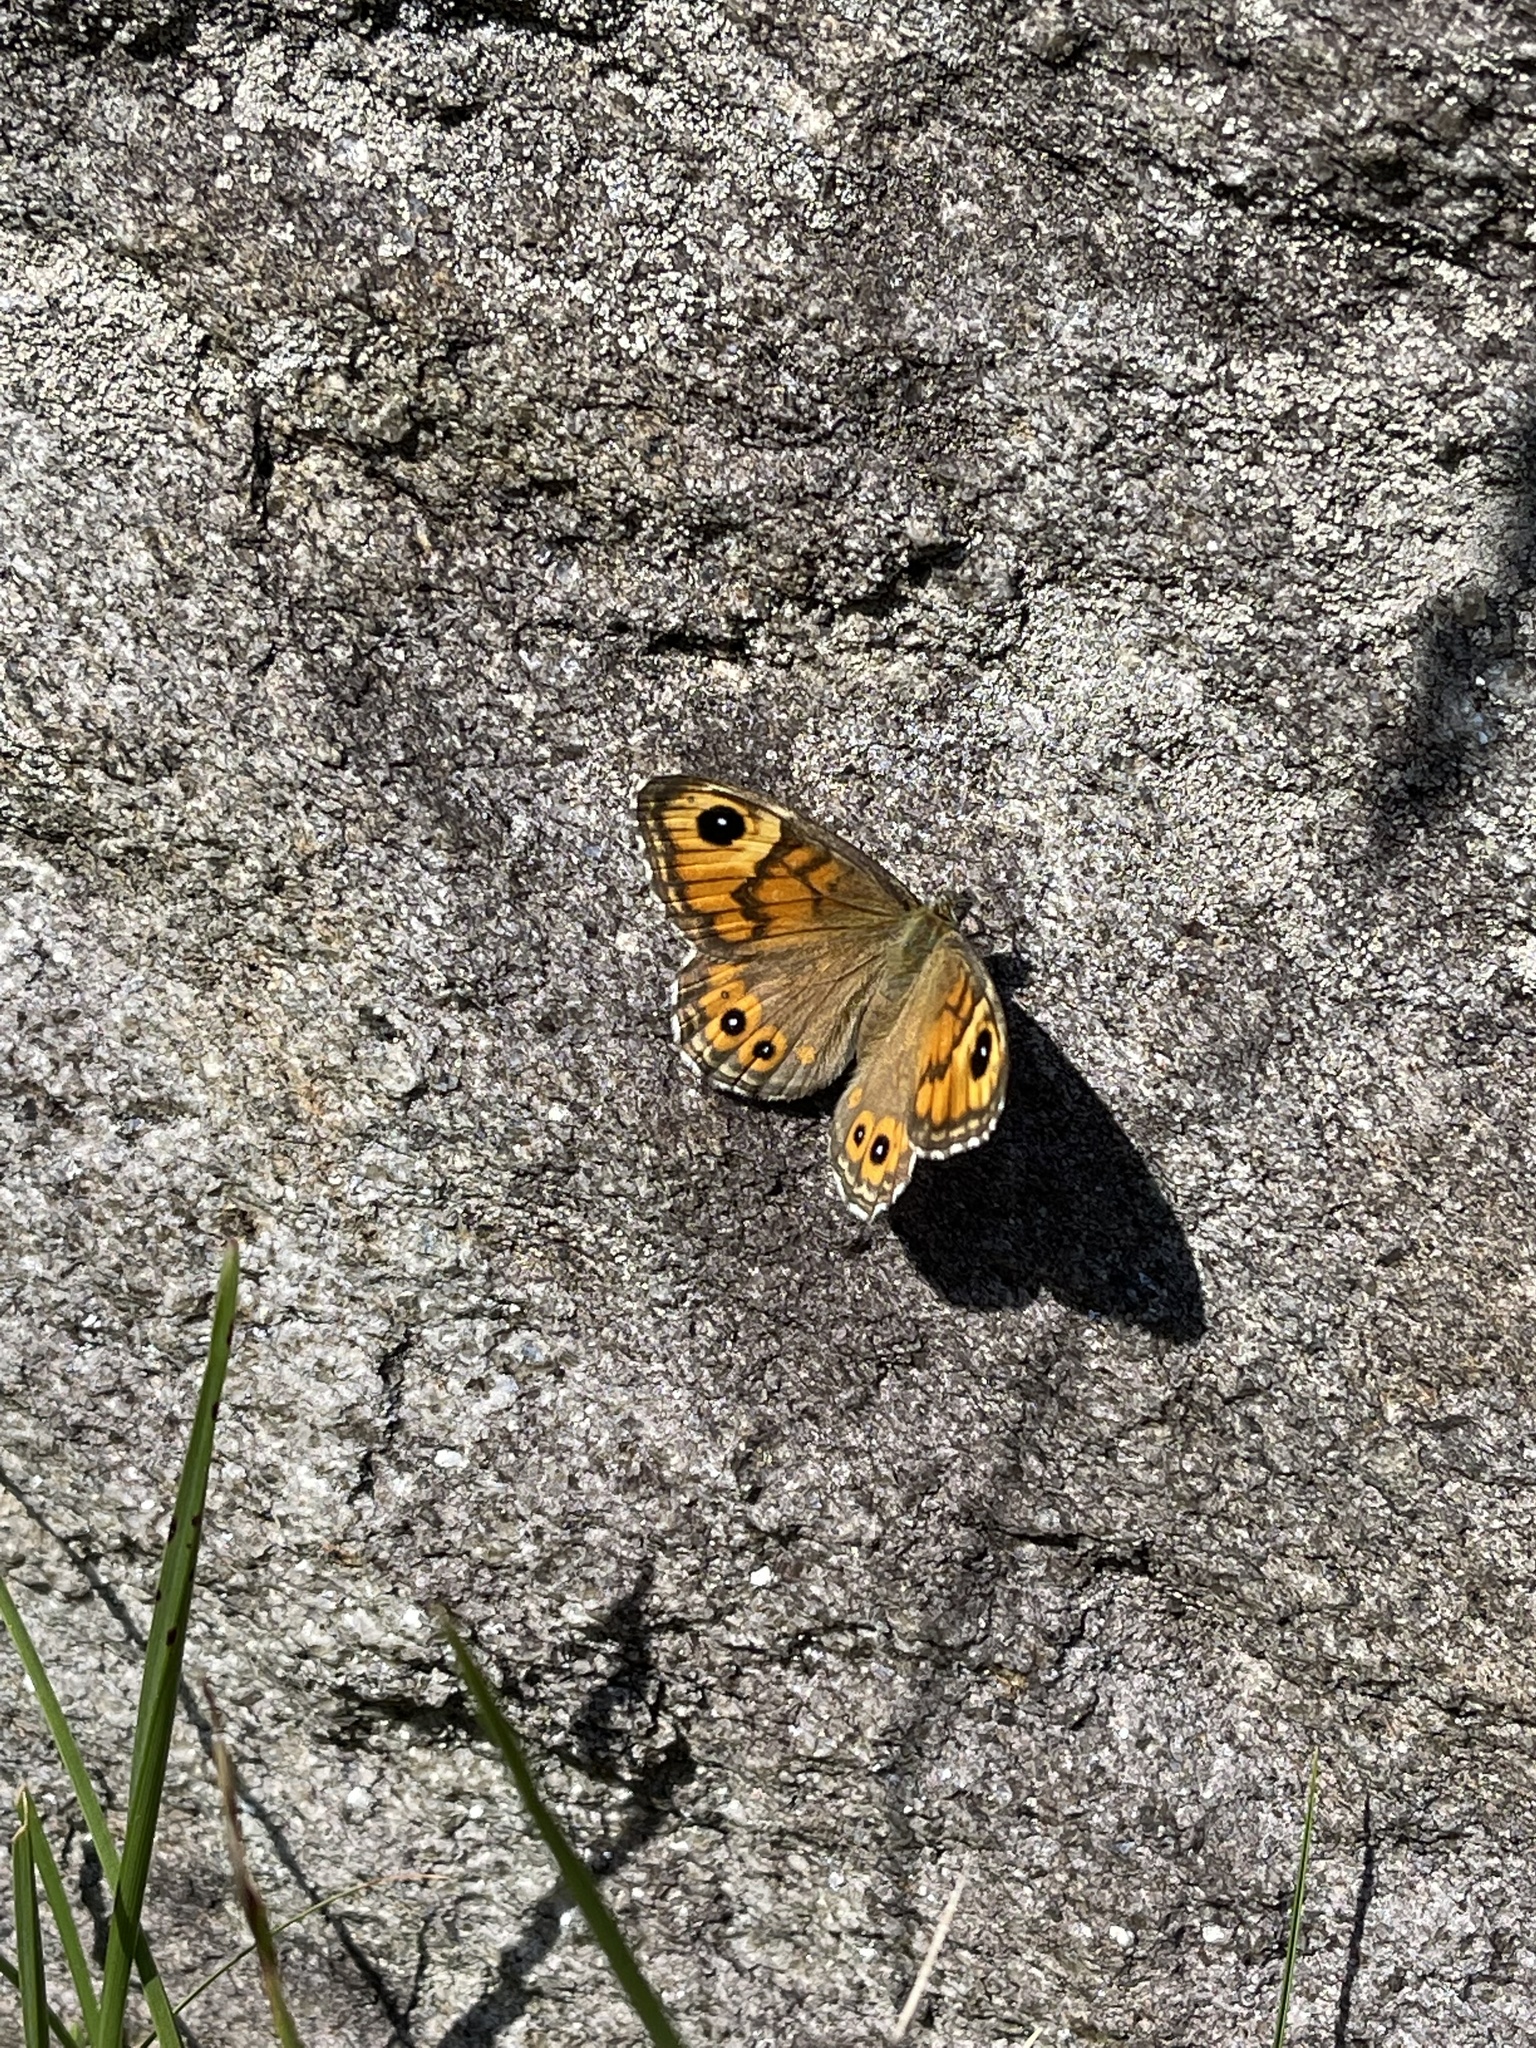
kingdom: Animalia
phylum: Arthropoda
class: Insecta
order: Lepidoptera
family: Nymphalidae
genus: Pararge
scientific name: Pararge Lasiommata maera
